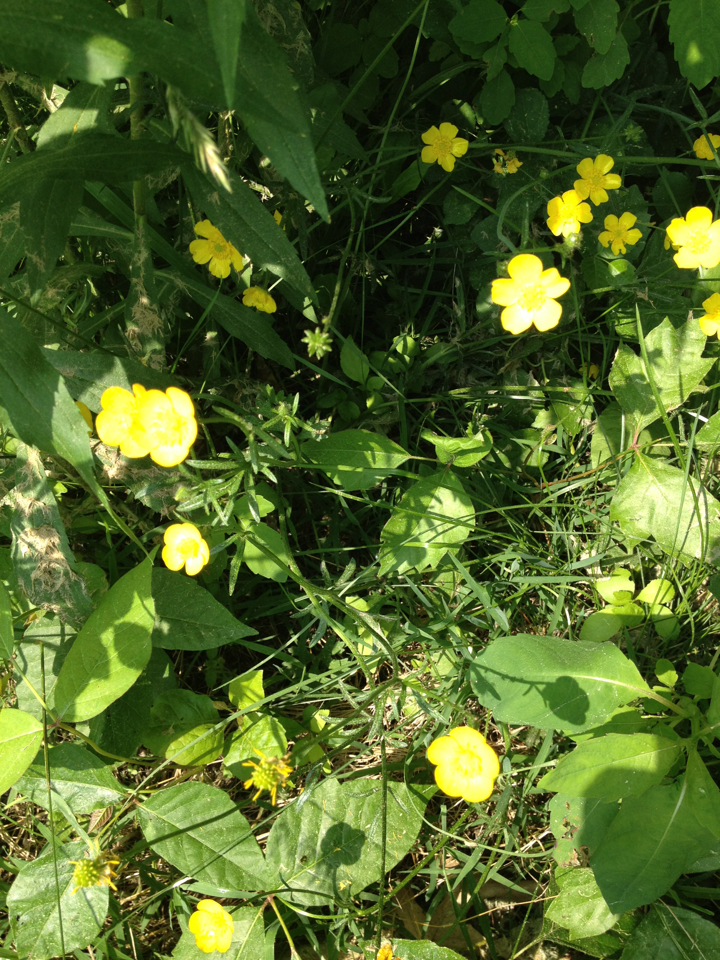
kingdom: Plantae
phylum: Tracheophyta
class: Magnoliopsida
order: Ranunculales
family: Ranunculaceae
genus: Ranunculus
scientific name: Ranunculus acris
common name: Meadow buttercup
